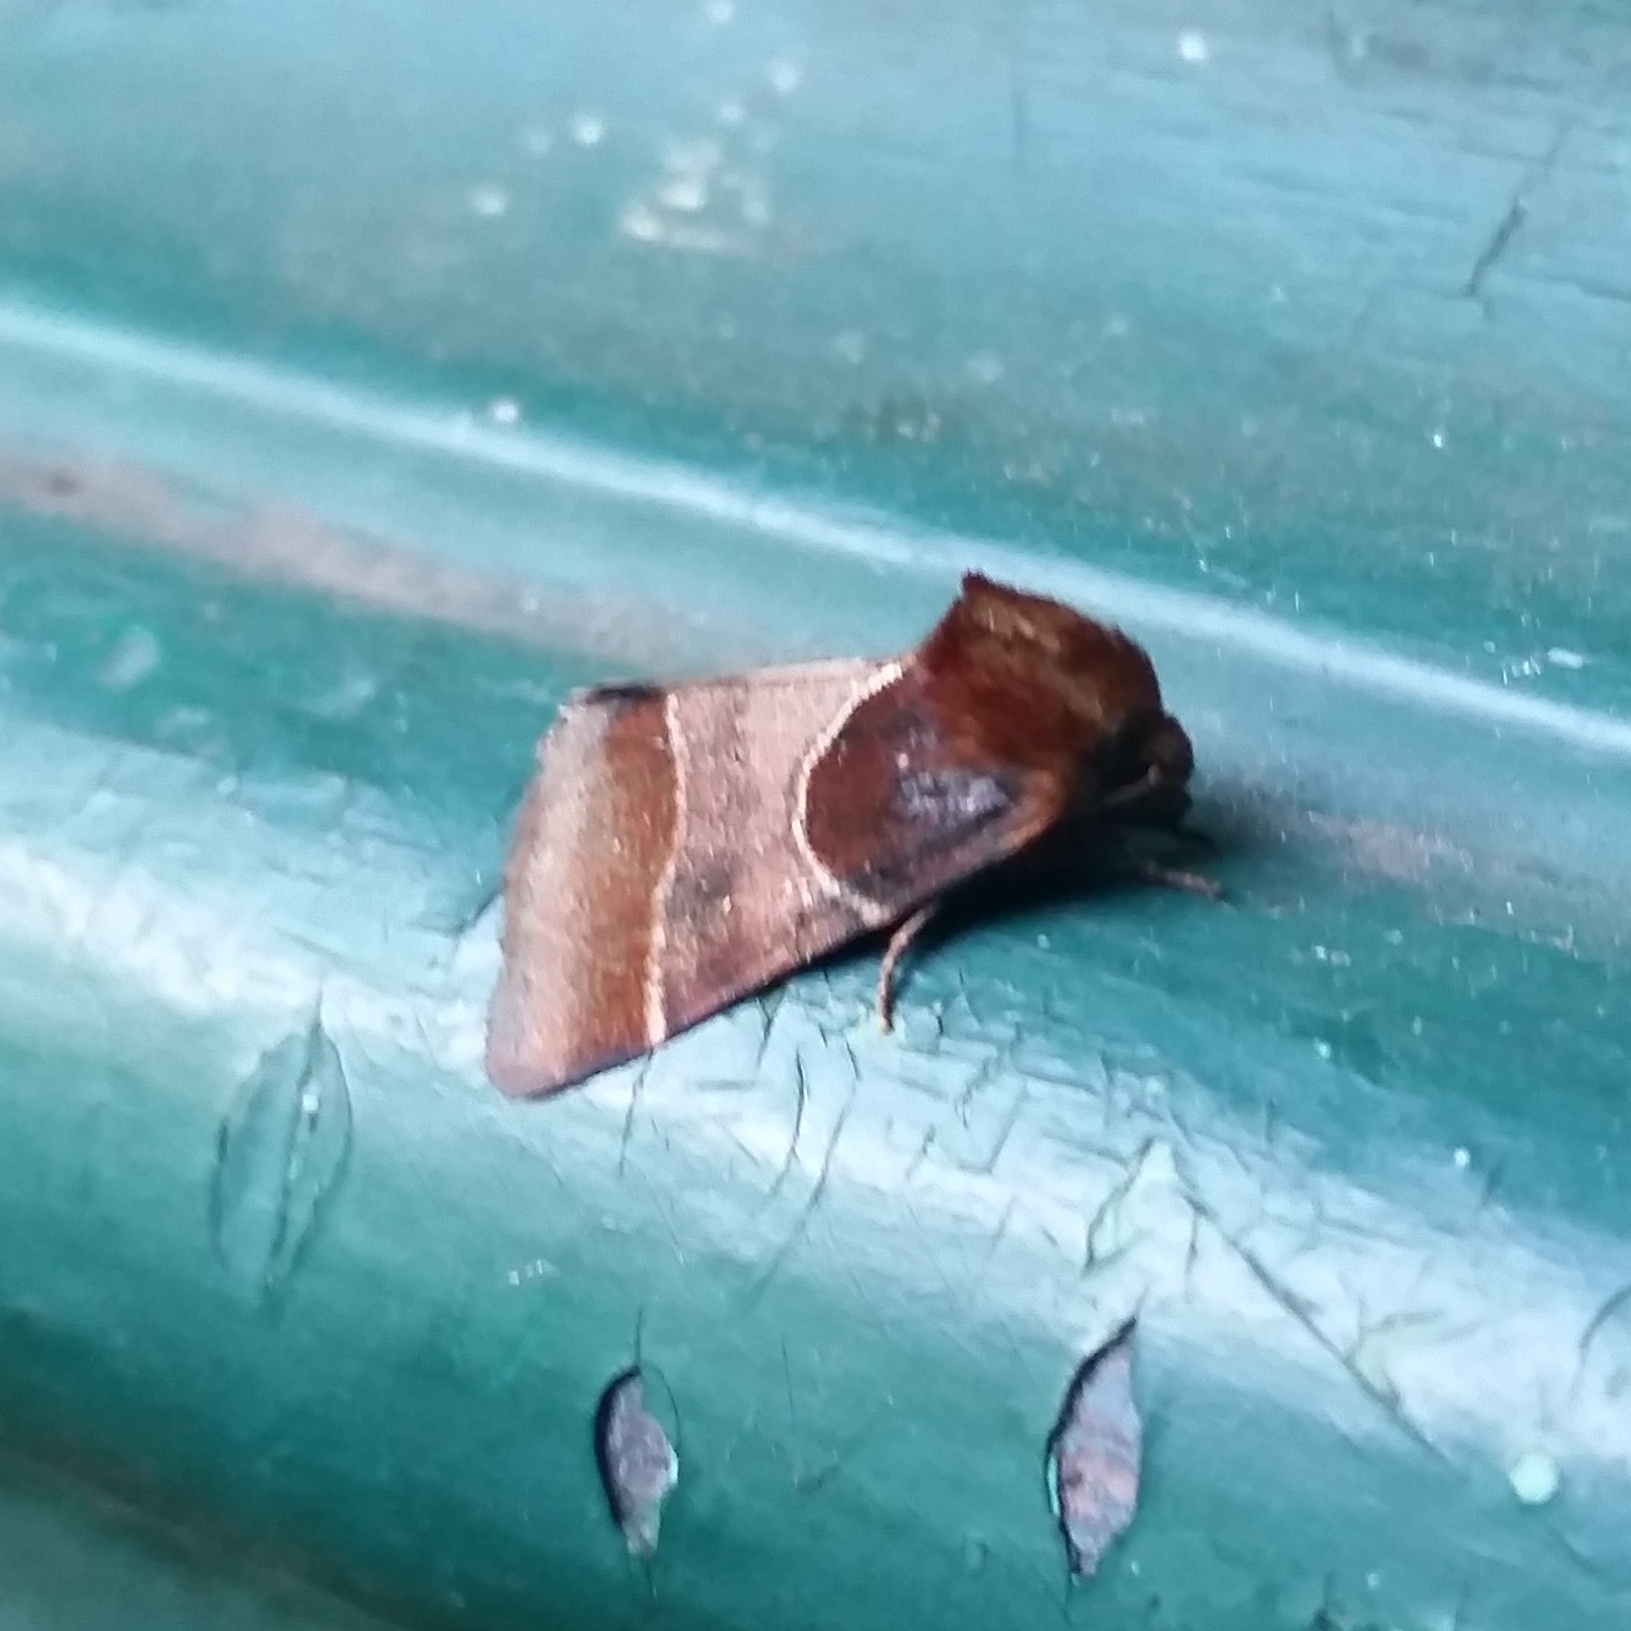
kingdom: Animalia
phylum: Arthropoda
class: Insecta
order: Lepidoptera
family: Noctuidae
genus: Schinia
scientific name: Schinia arcigera
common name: Arcigera flower moth
